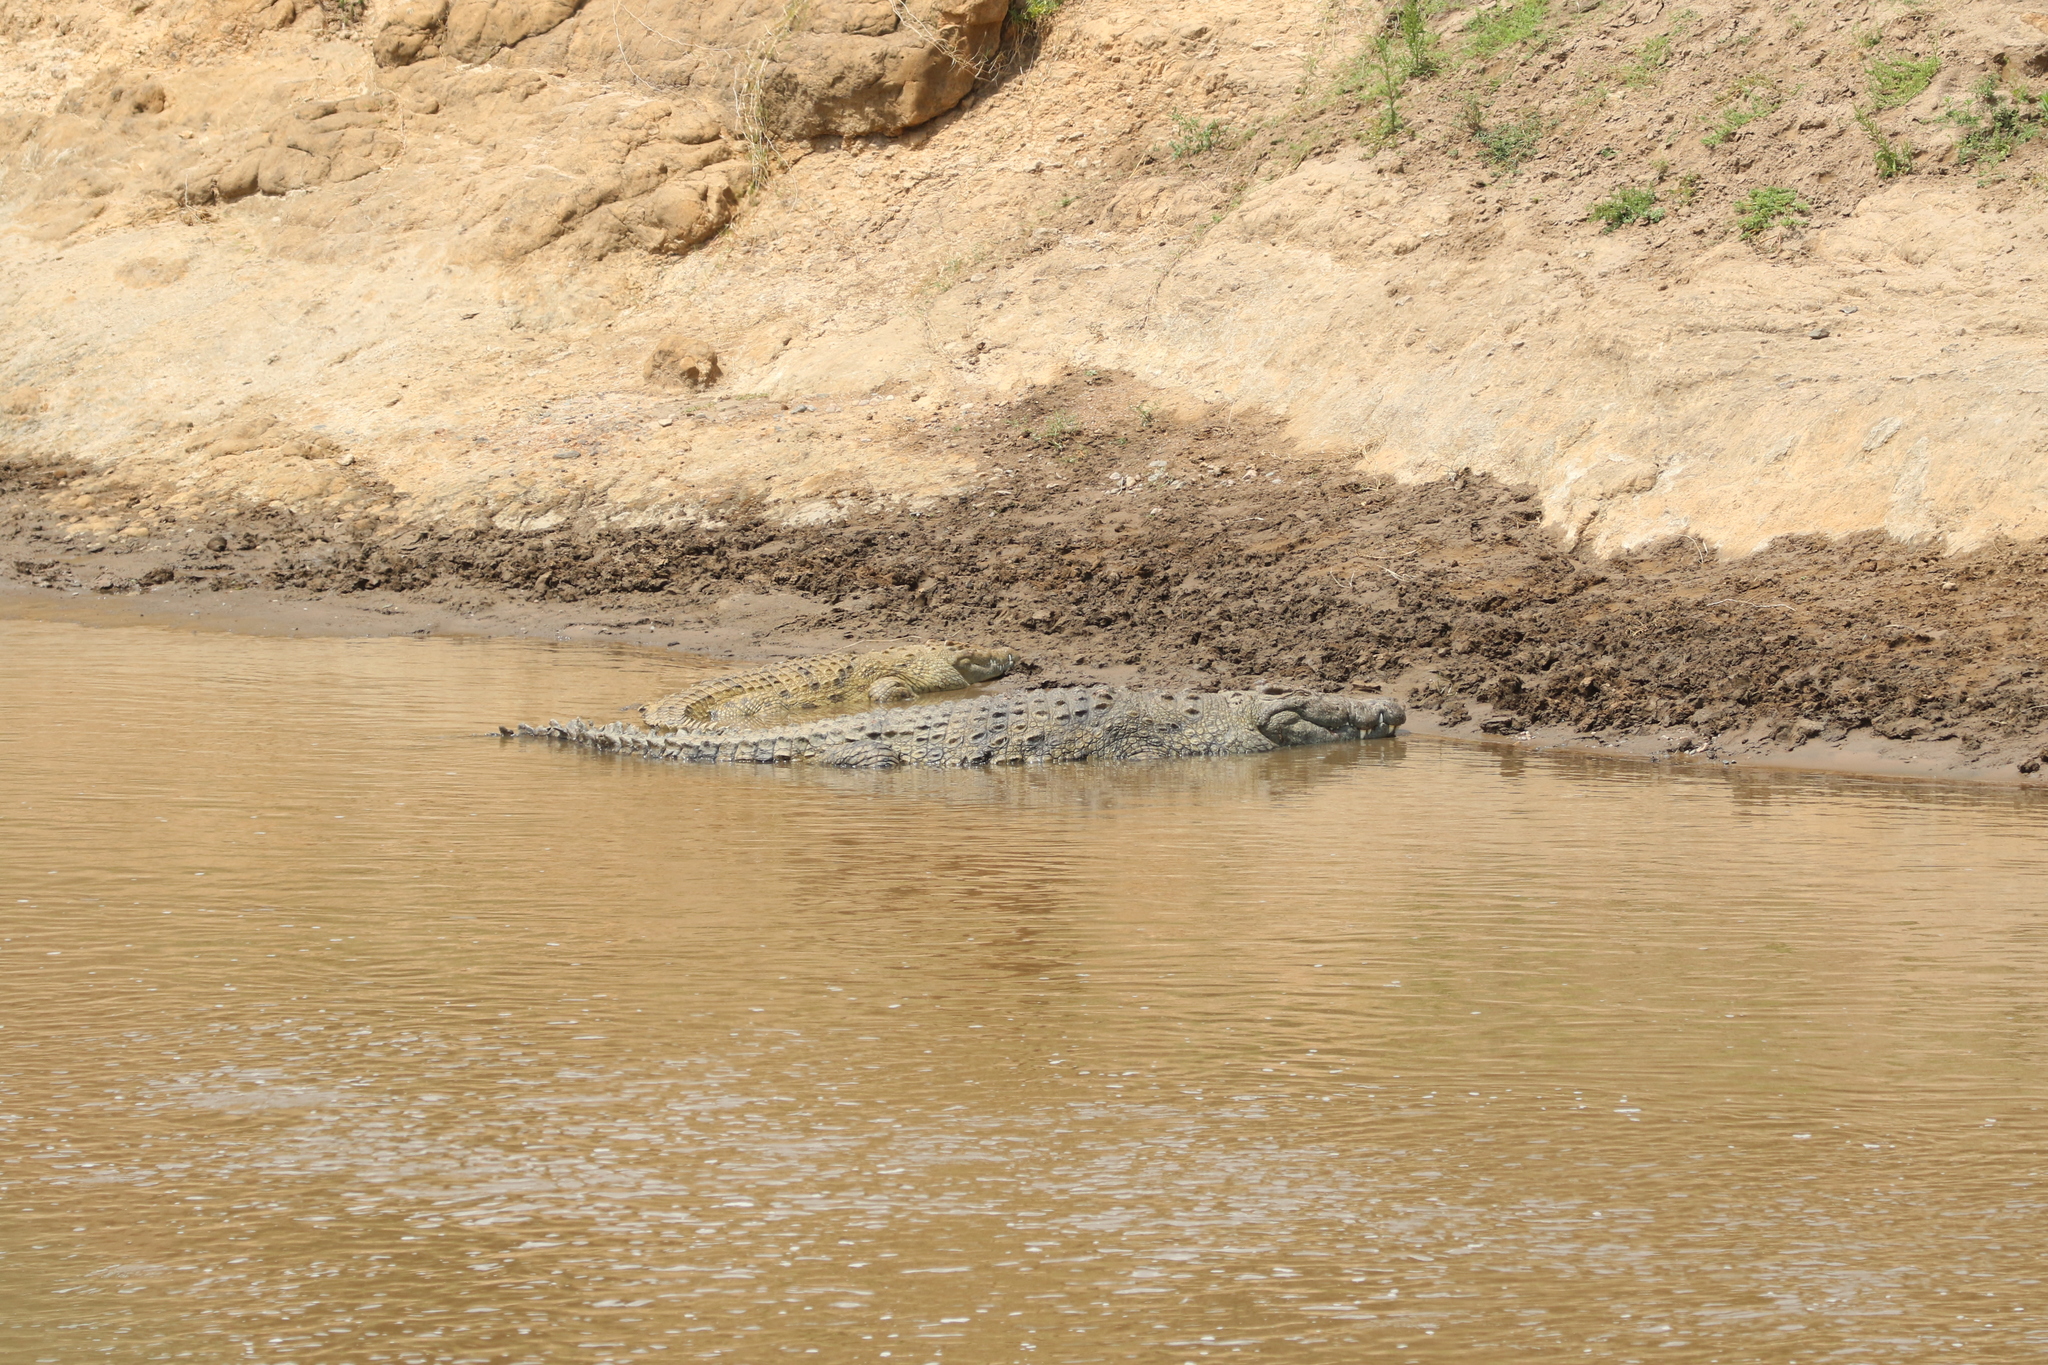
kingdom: Animalia
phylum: Chordata
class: Crocodylia
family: Crocodylidae
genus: Crocodylus
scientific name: Crocodylus niloticus
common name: Nile crocodile
